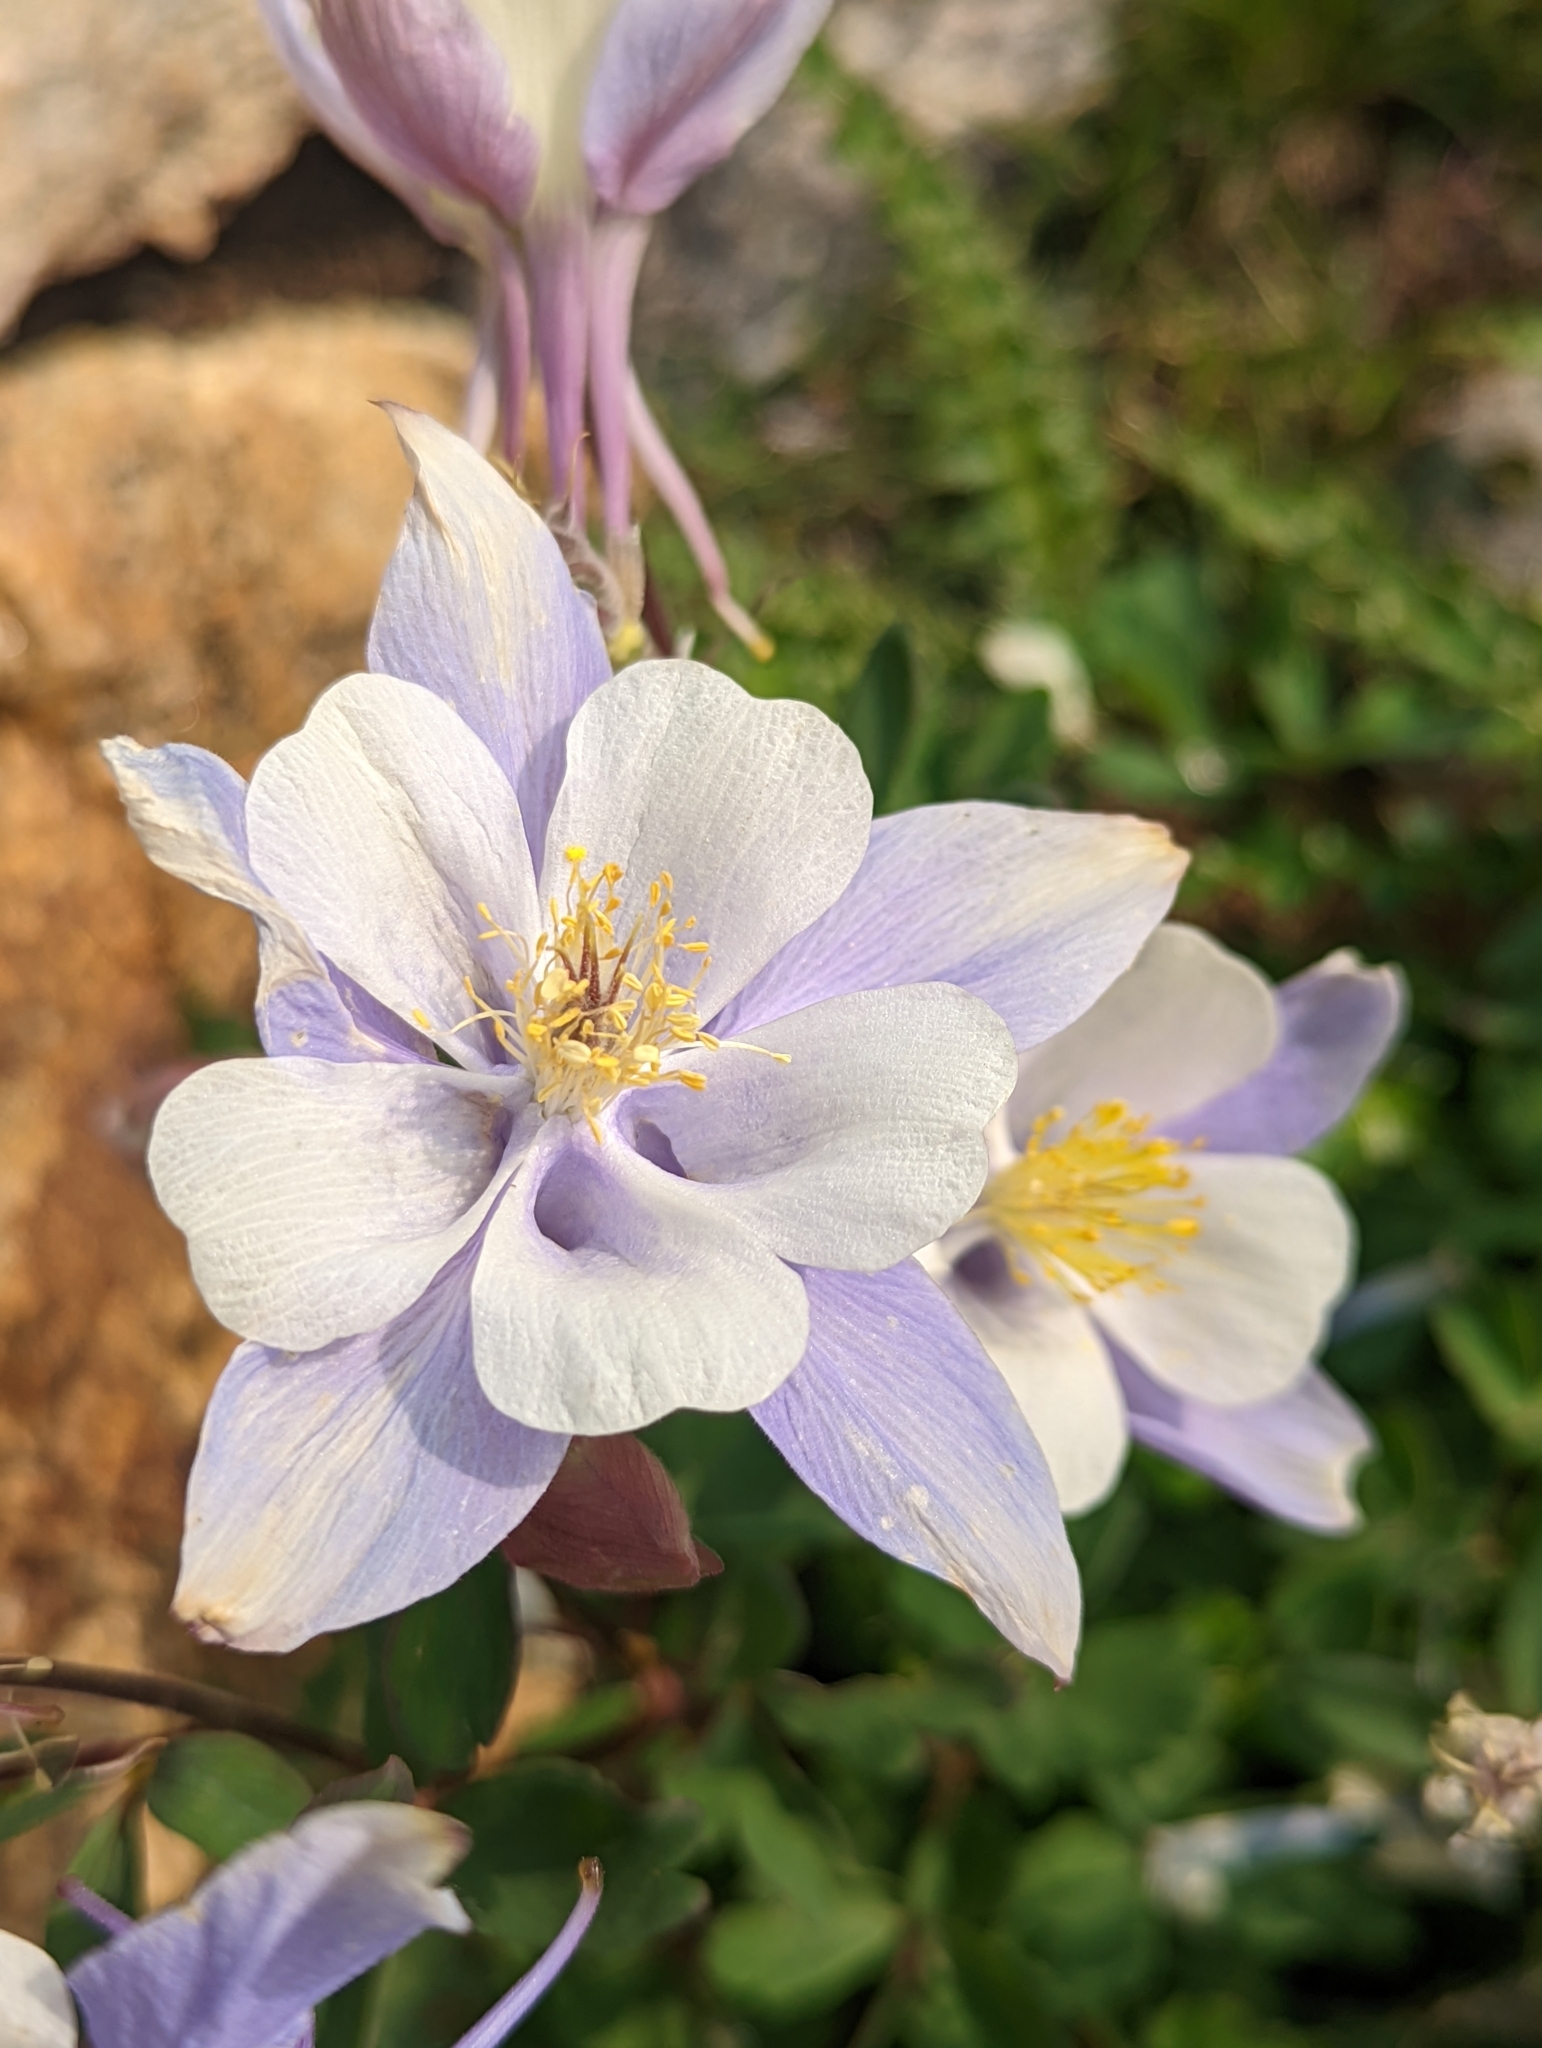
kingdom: Plantae
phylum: Tracheophyta
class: Magnoliopsida
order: Ranunculales
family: Ranunculaceae
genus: Aquilegia
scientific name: Aquilegia coerulea
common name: Rocky mountain columbine
